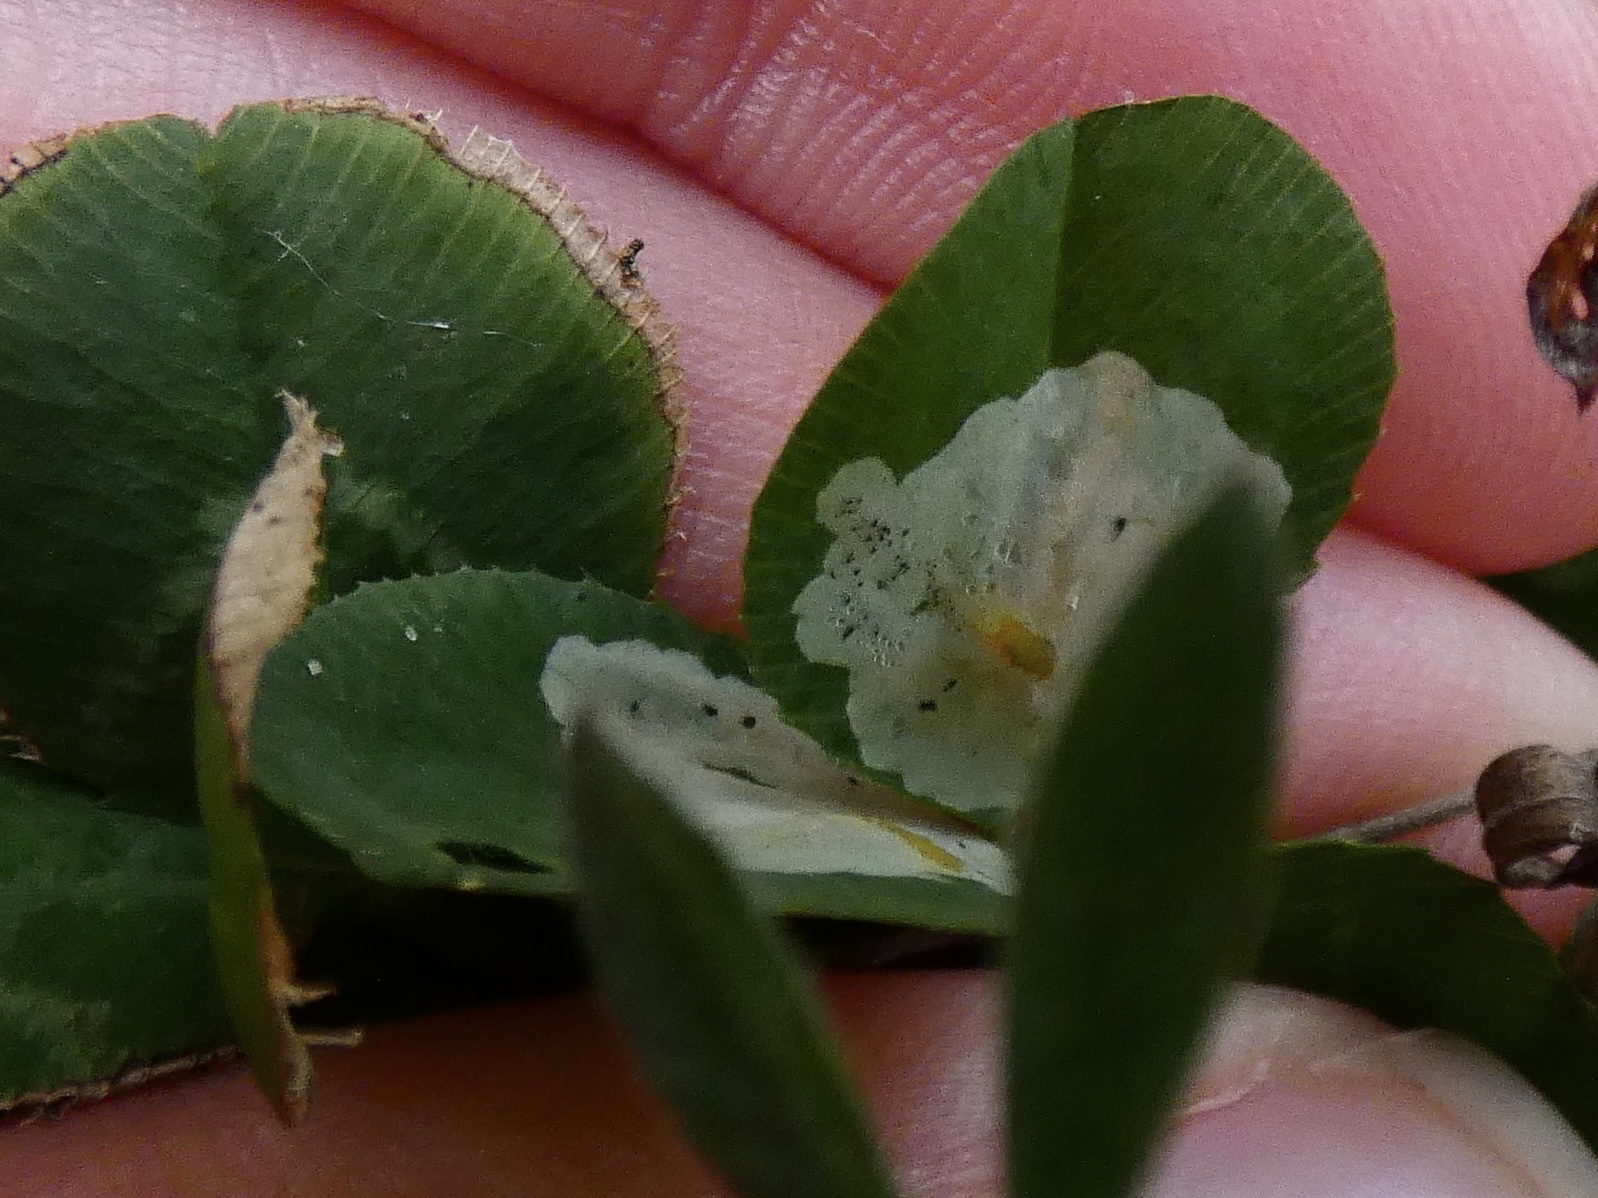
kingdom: Animalia
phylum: Arthropoda
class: Insecta
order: Diptera
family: Agromyzidae
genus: Agromyza
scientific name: Agromyza nana
